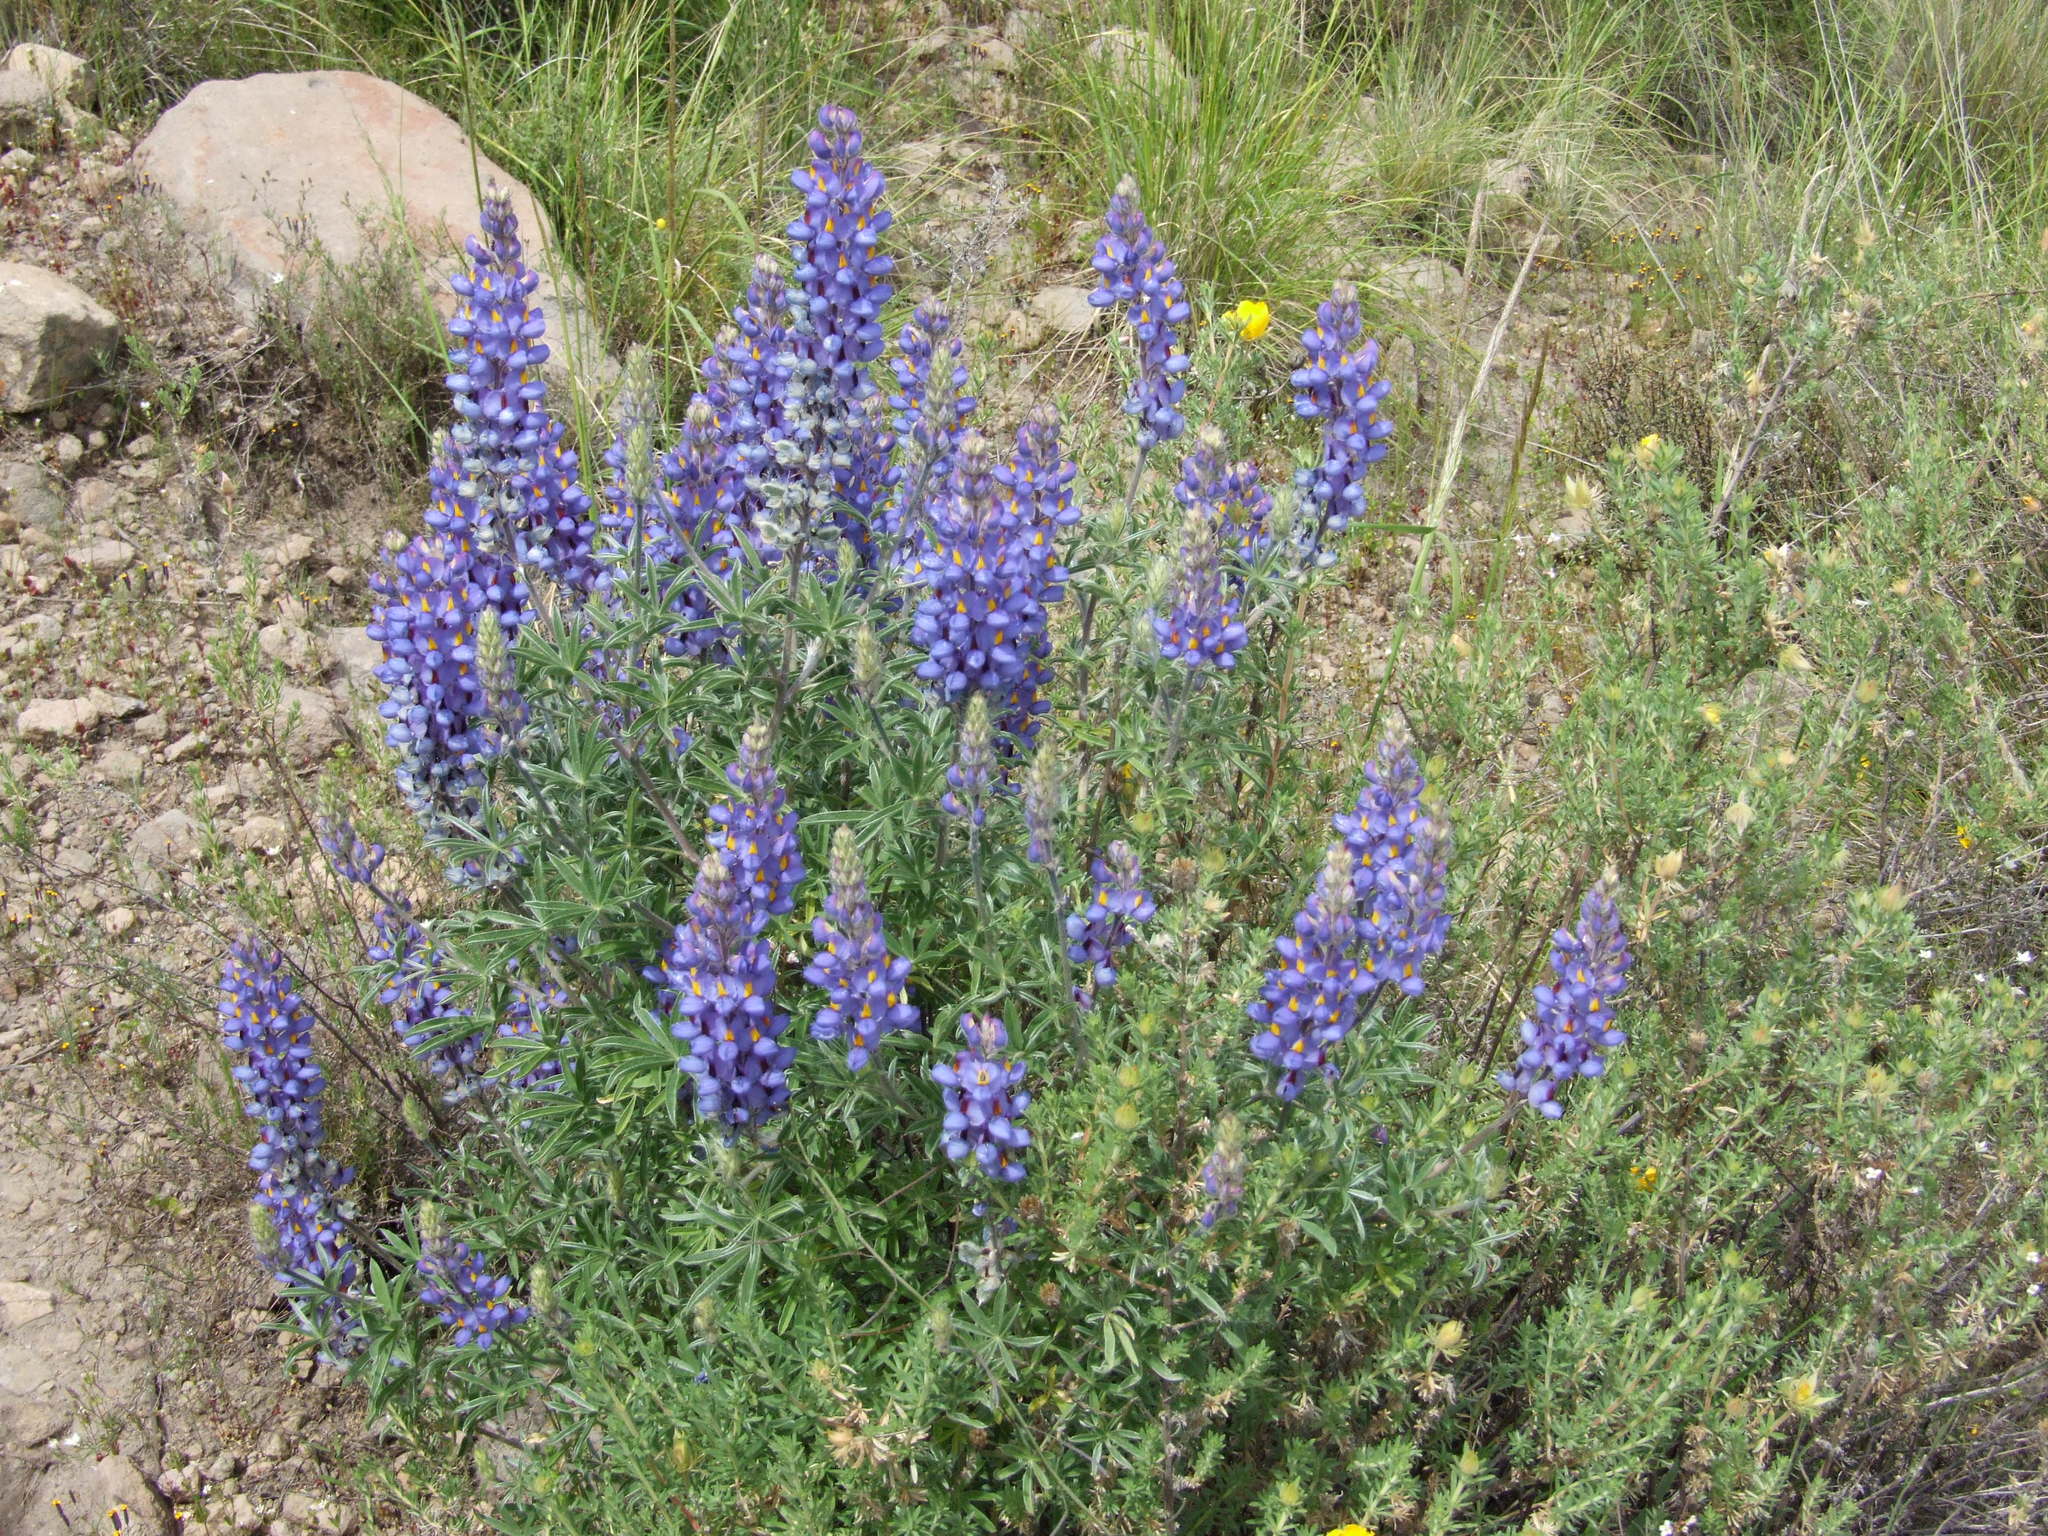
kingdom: Plantae
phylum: Tracheophyta
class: Magnoliopsida
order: Fabales
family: Fabaceae
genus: Lupinus
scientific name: Lupinus saxatilis
